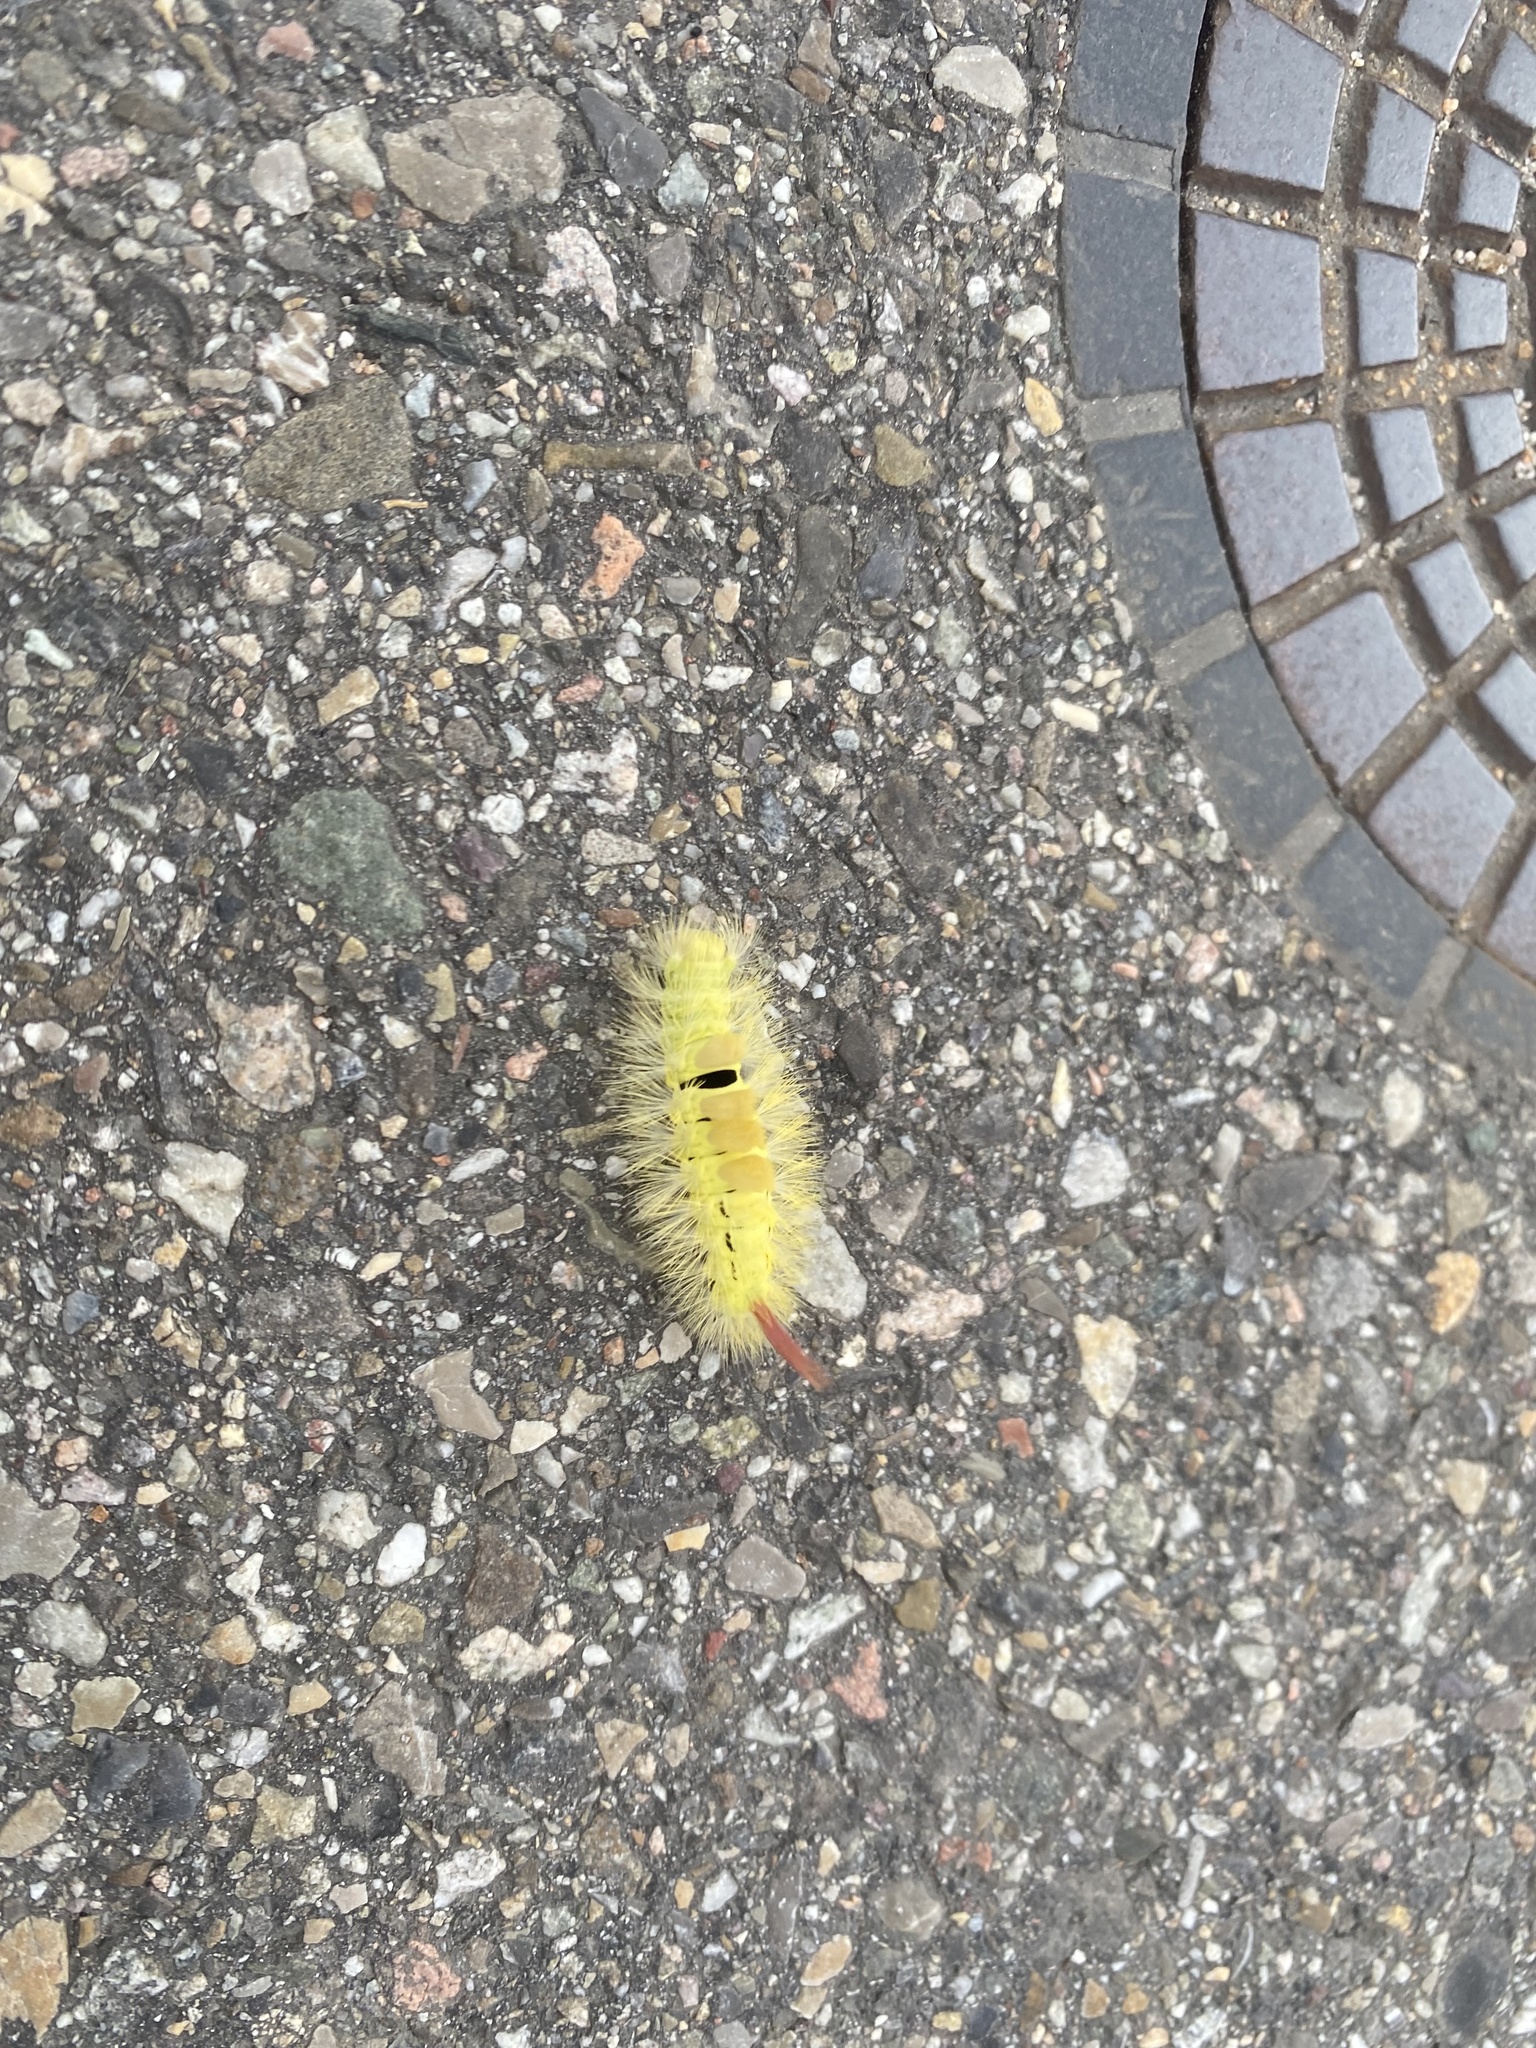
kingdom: Animalia
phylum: Arthropoda
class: Insecta
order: Lepidoptera
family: Erebidae
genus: Calliteara
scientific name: Calliteara pudibunda
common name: Pale tussock
